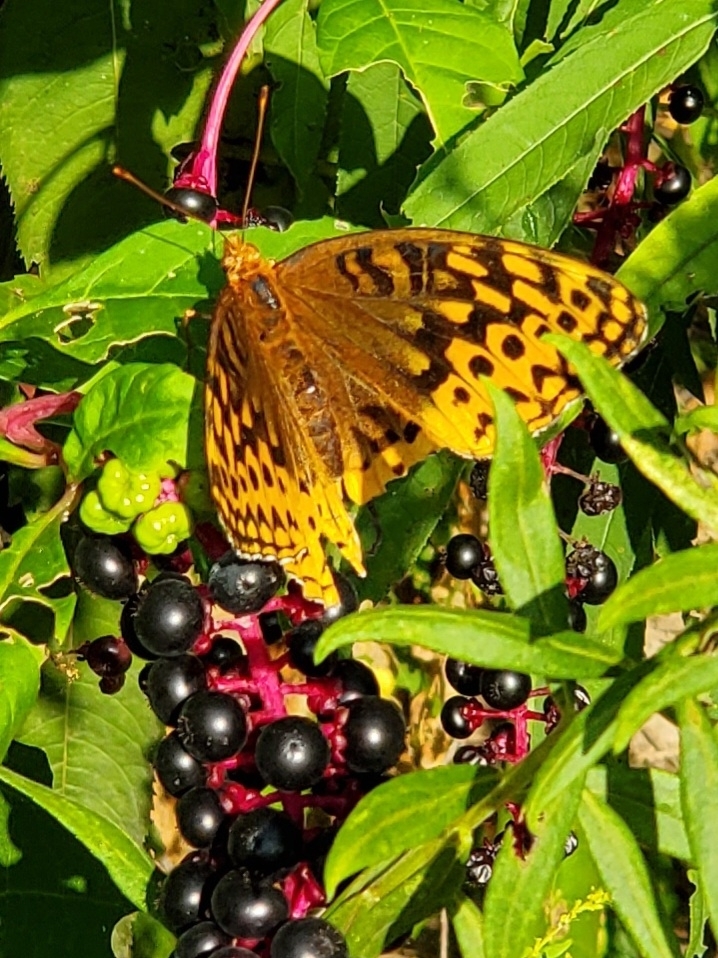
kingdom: Animalia
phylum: Arthropoda
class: Insecta
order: Lepidoptera
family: Nymphalidae
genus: Speyeria
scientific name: Speyeria cybele
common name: Great spangled fritillary
